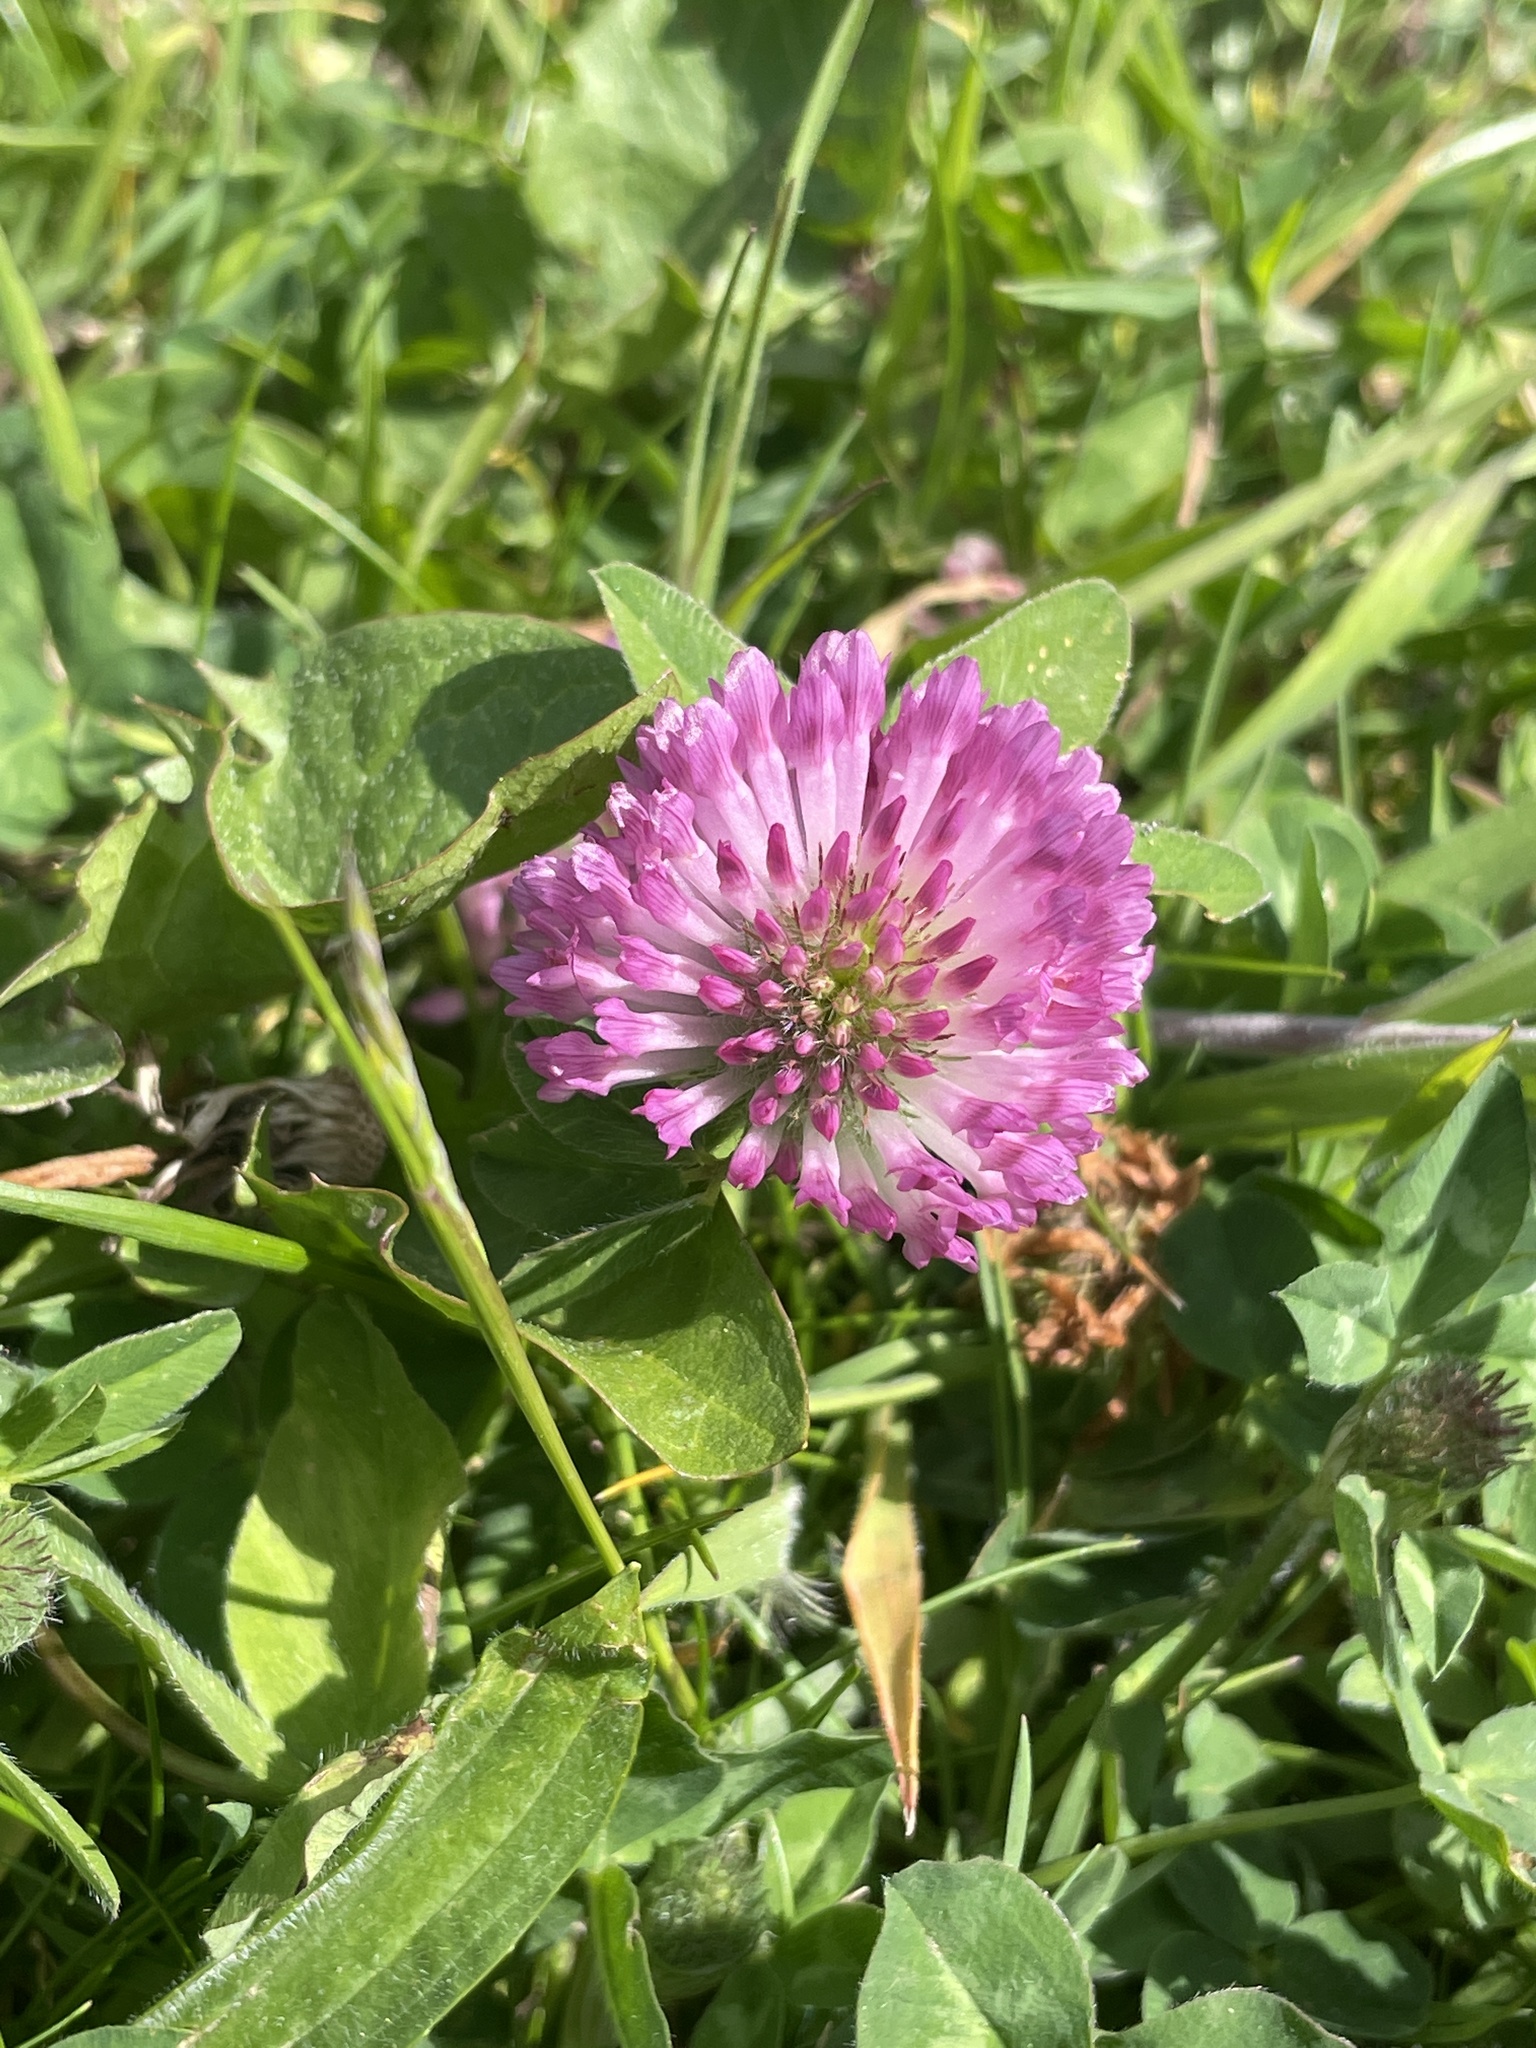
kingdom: Plantae
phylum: Tracheophyta
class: Magnoliopsida
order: Fabales
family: Fabaceae
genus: Trifolium
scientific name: Trifolium pratense
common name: Red clover
